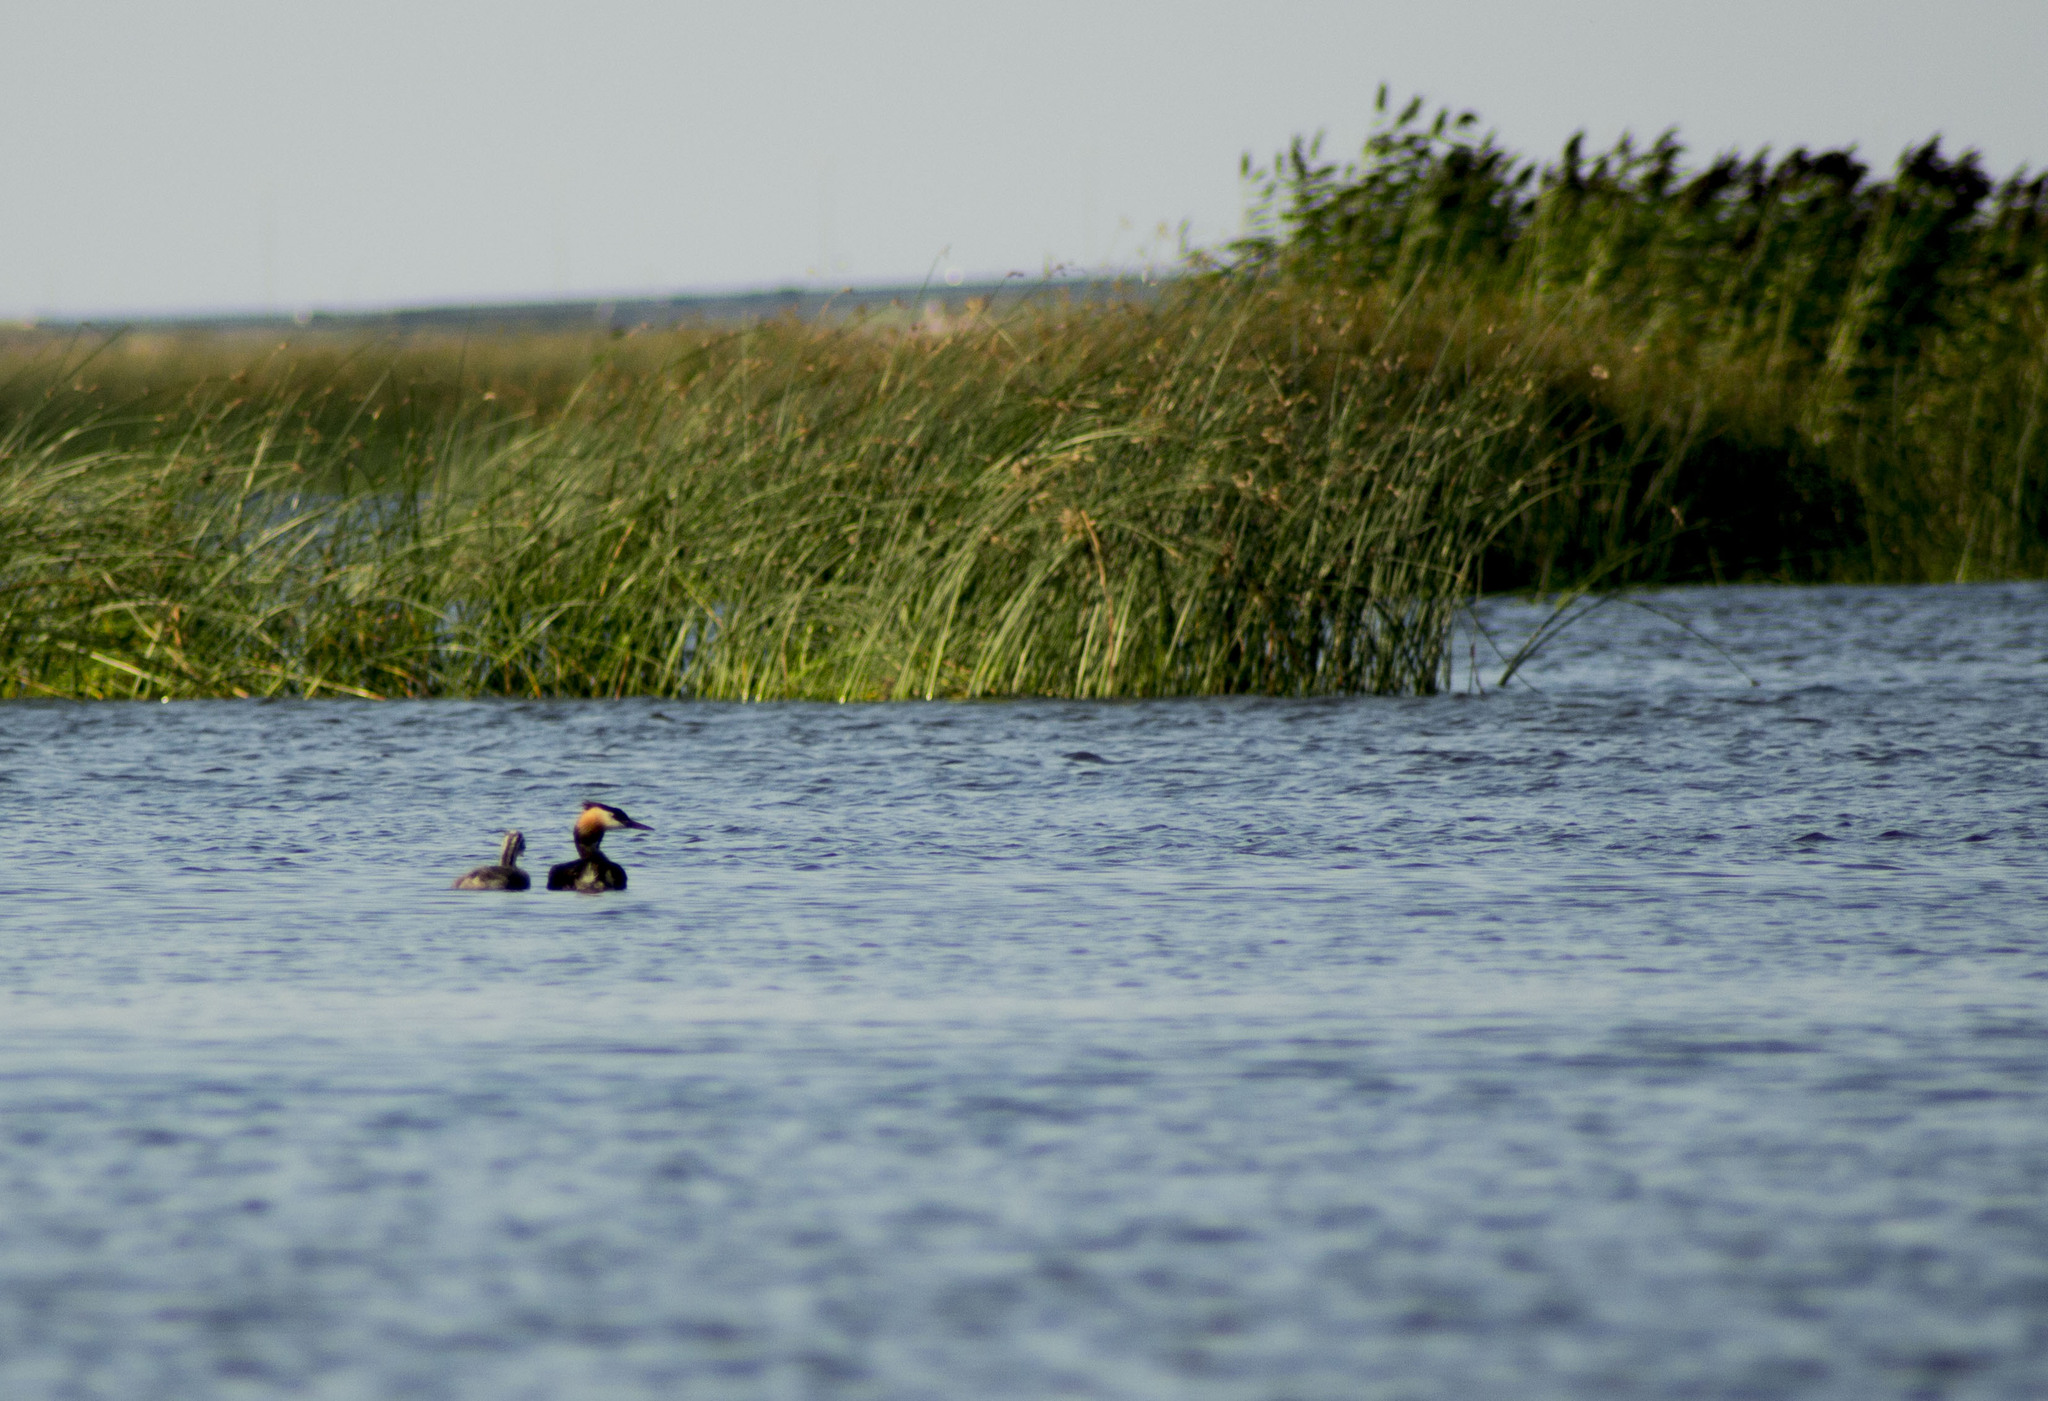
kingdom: Animalia
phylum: Chordata
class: Aves
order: Podicipediformes
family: Podicipedidae
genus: Podiceps
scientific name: Podiceps cristatus
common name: Great crested grebe
